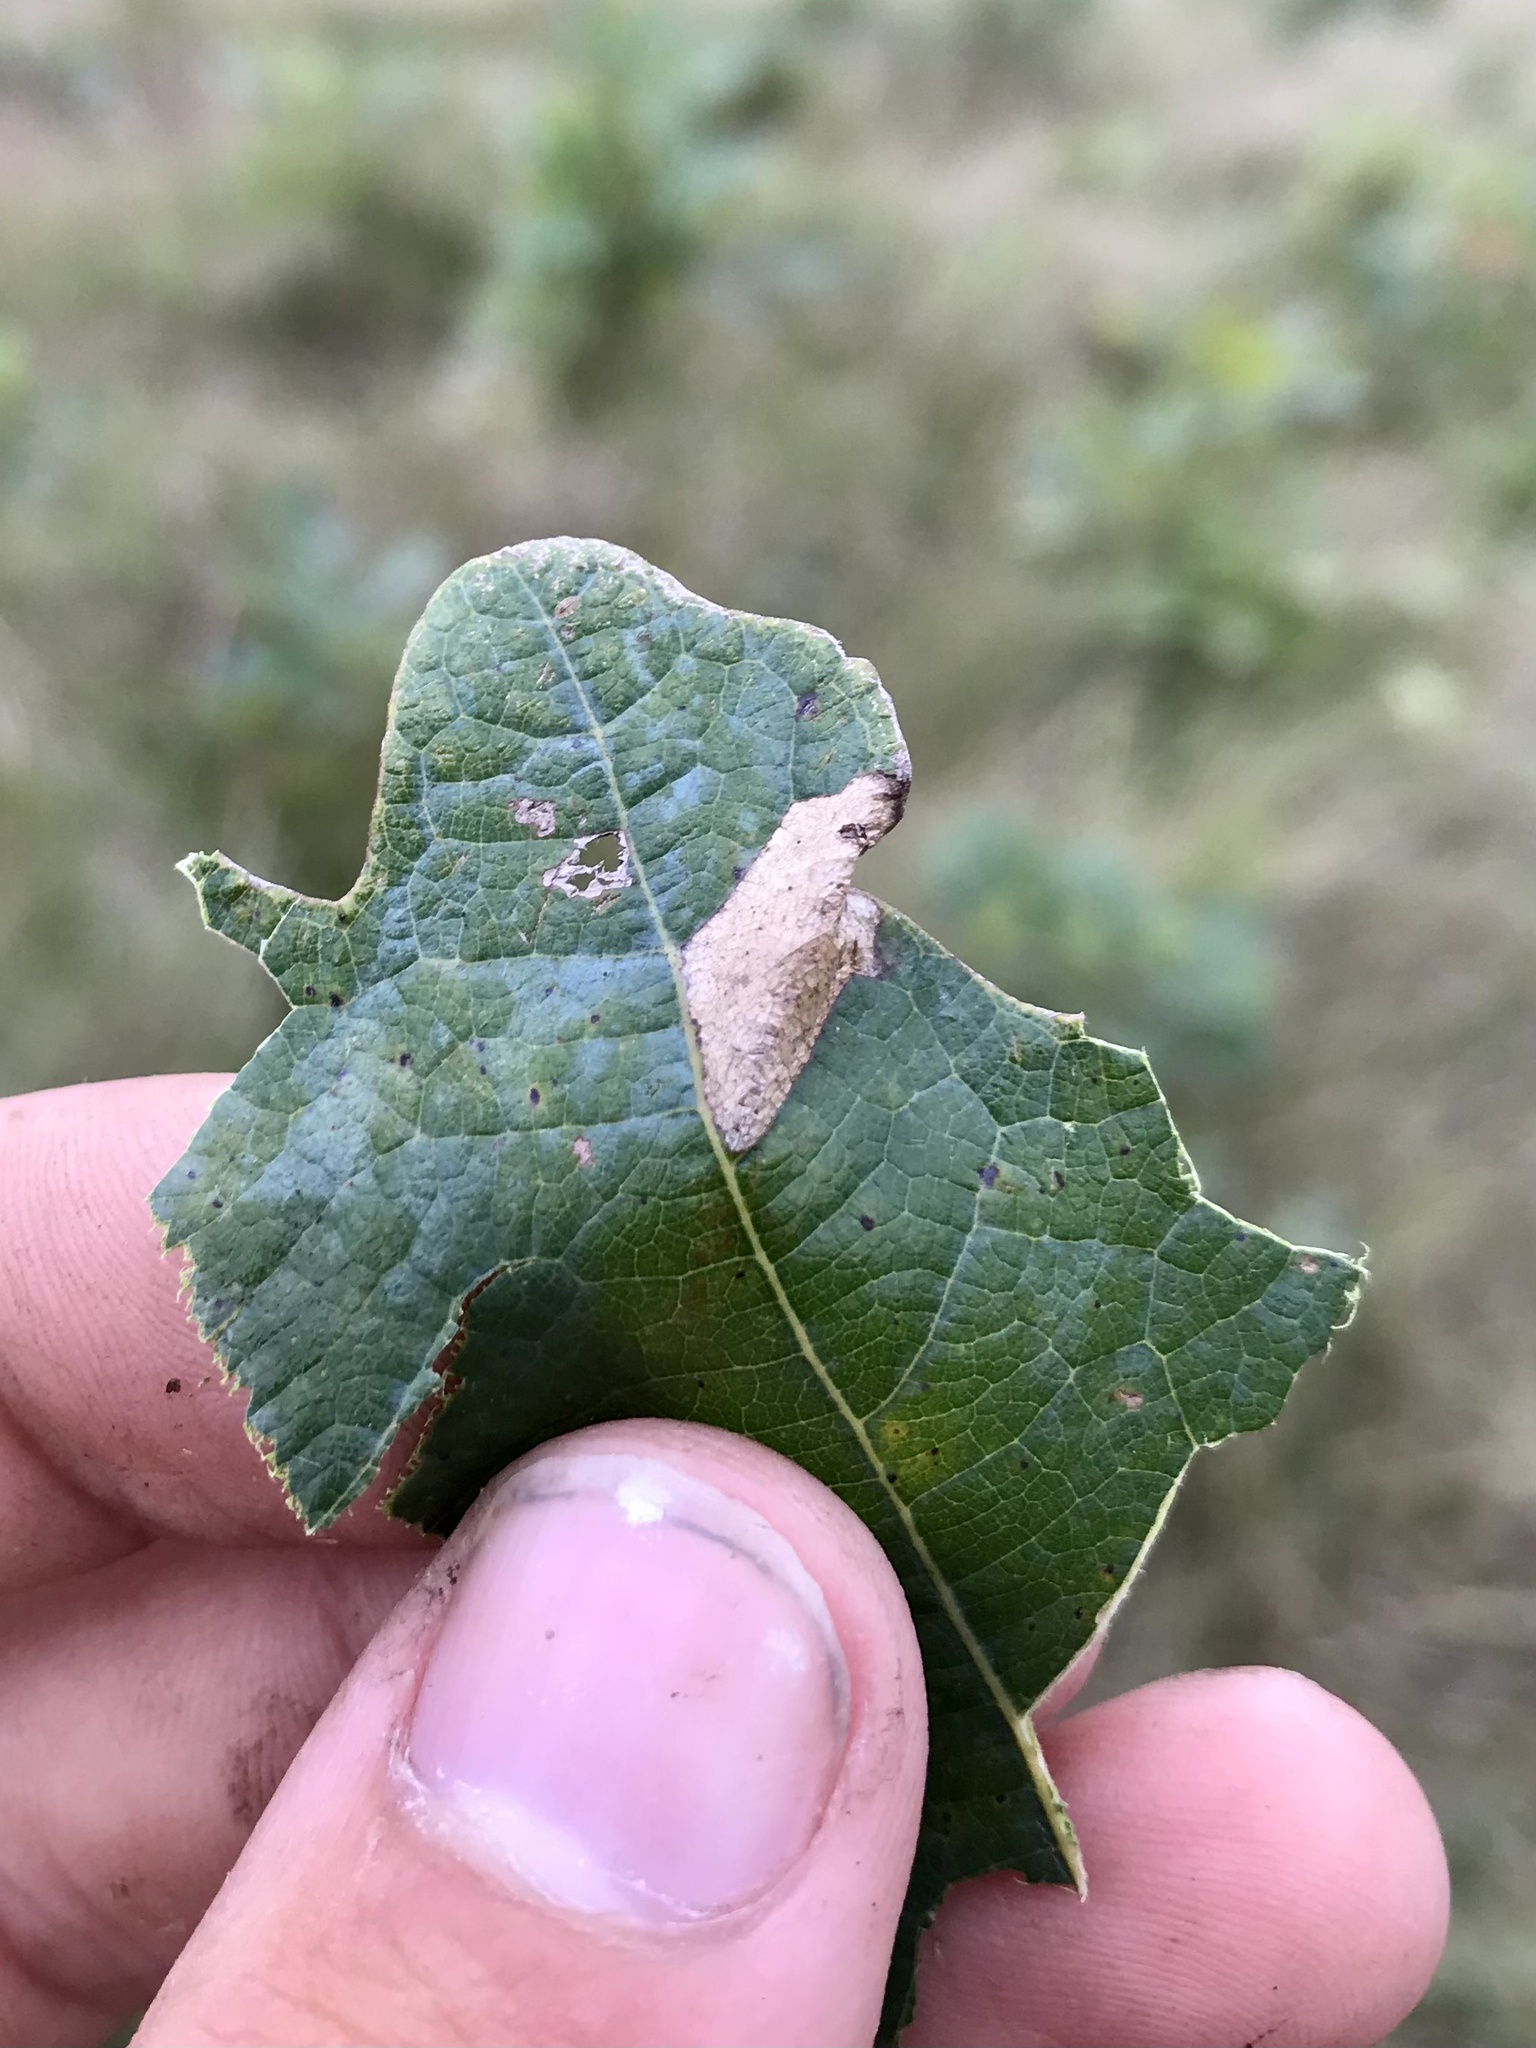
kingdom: Animalia
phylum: Arthropoda
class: Insecta
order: Lepidoptera
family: Gracillariidae
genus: Phyllonorycter
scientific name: Phyllonorycter fitchella
